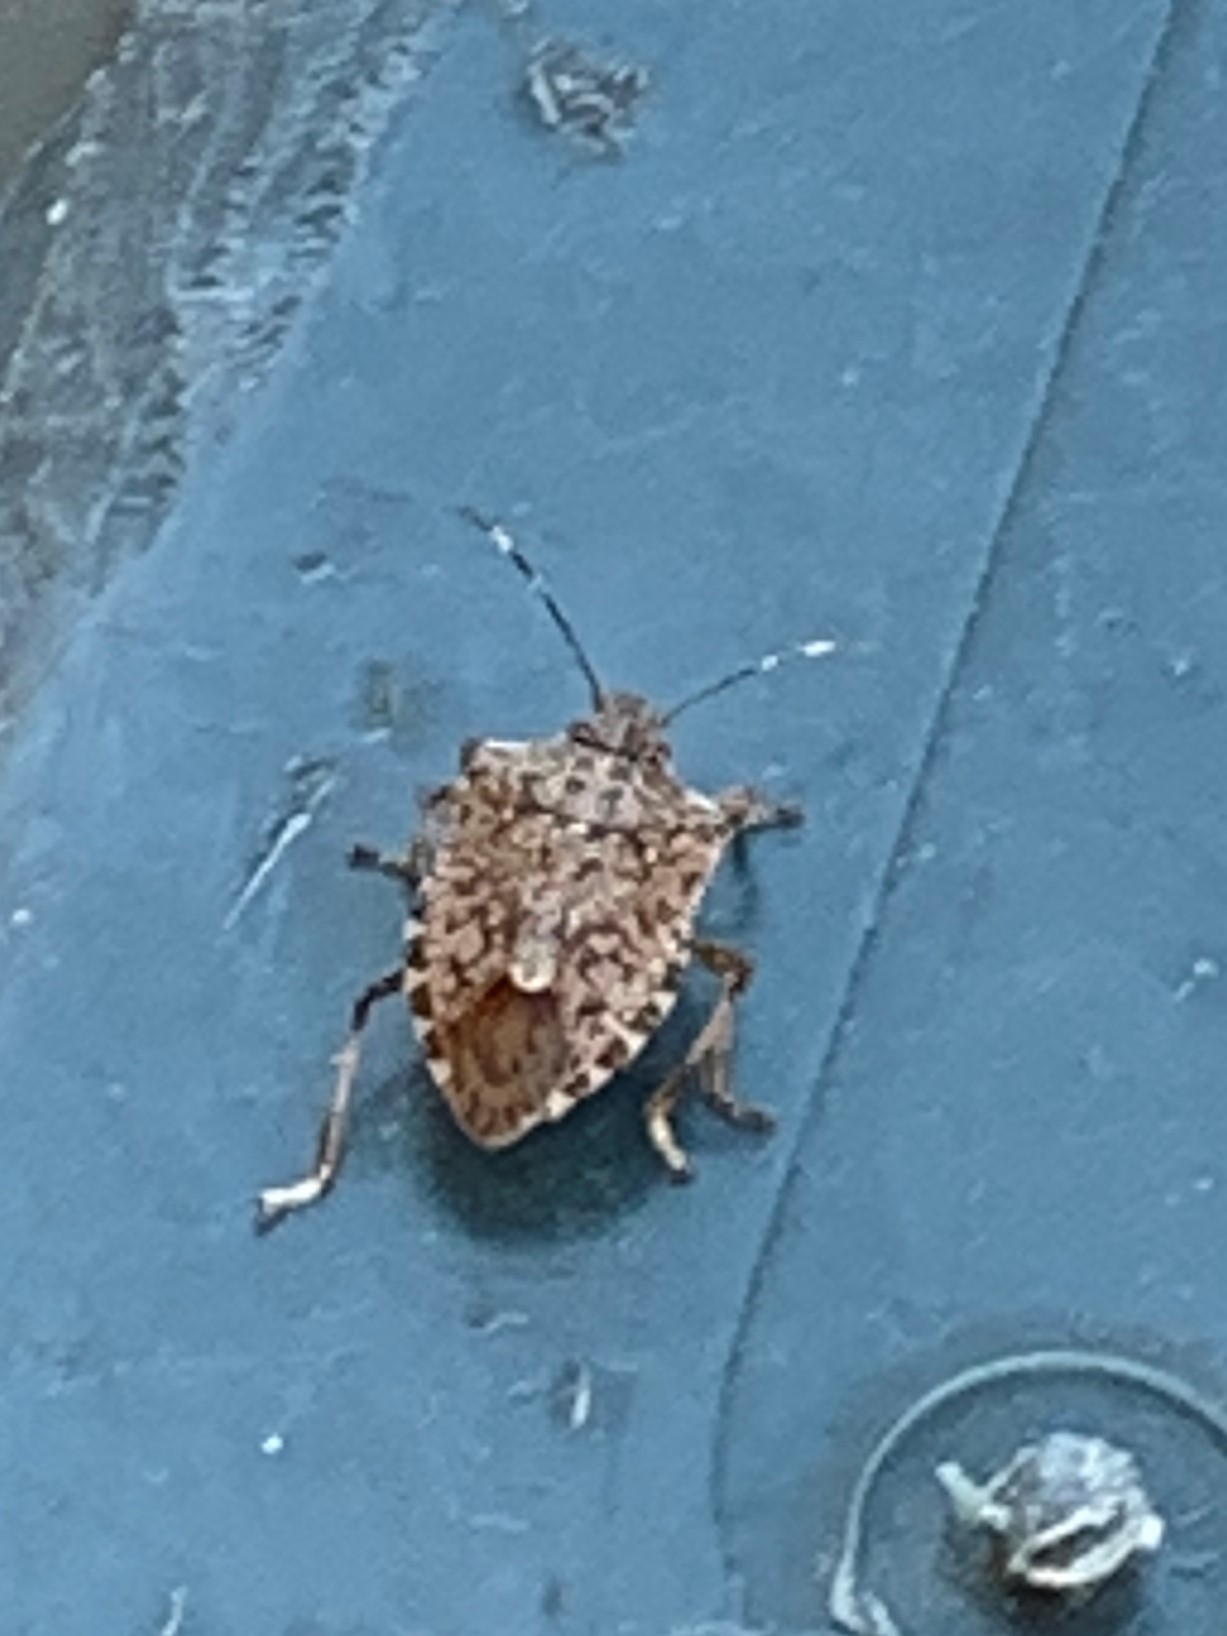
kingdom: Animalia
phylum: Arthropoda
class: Insecta
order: Hemiptera
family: Pentatomidae
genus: Halyomorpha
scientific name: Halyomorpha halys
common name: Brown marmorated stink bug
